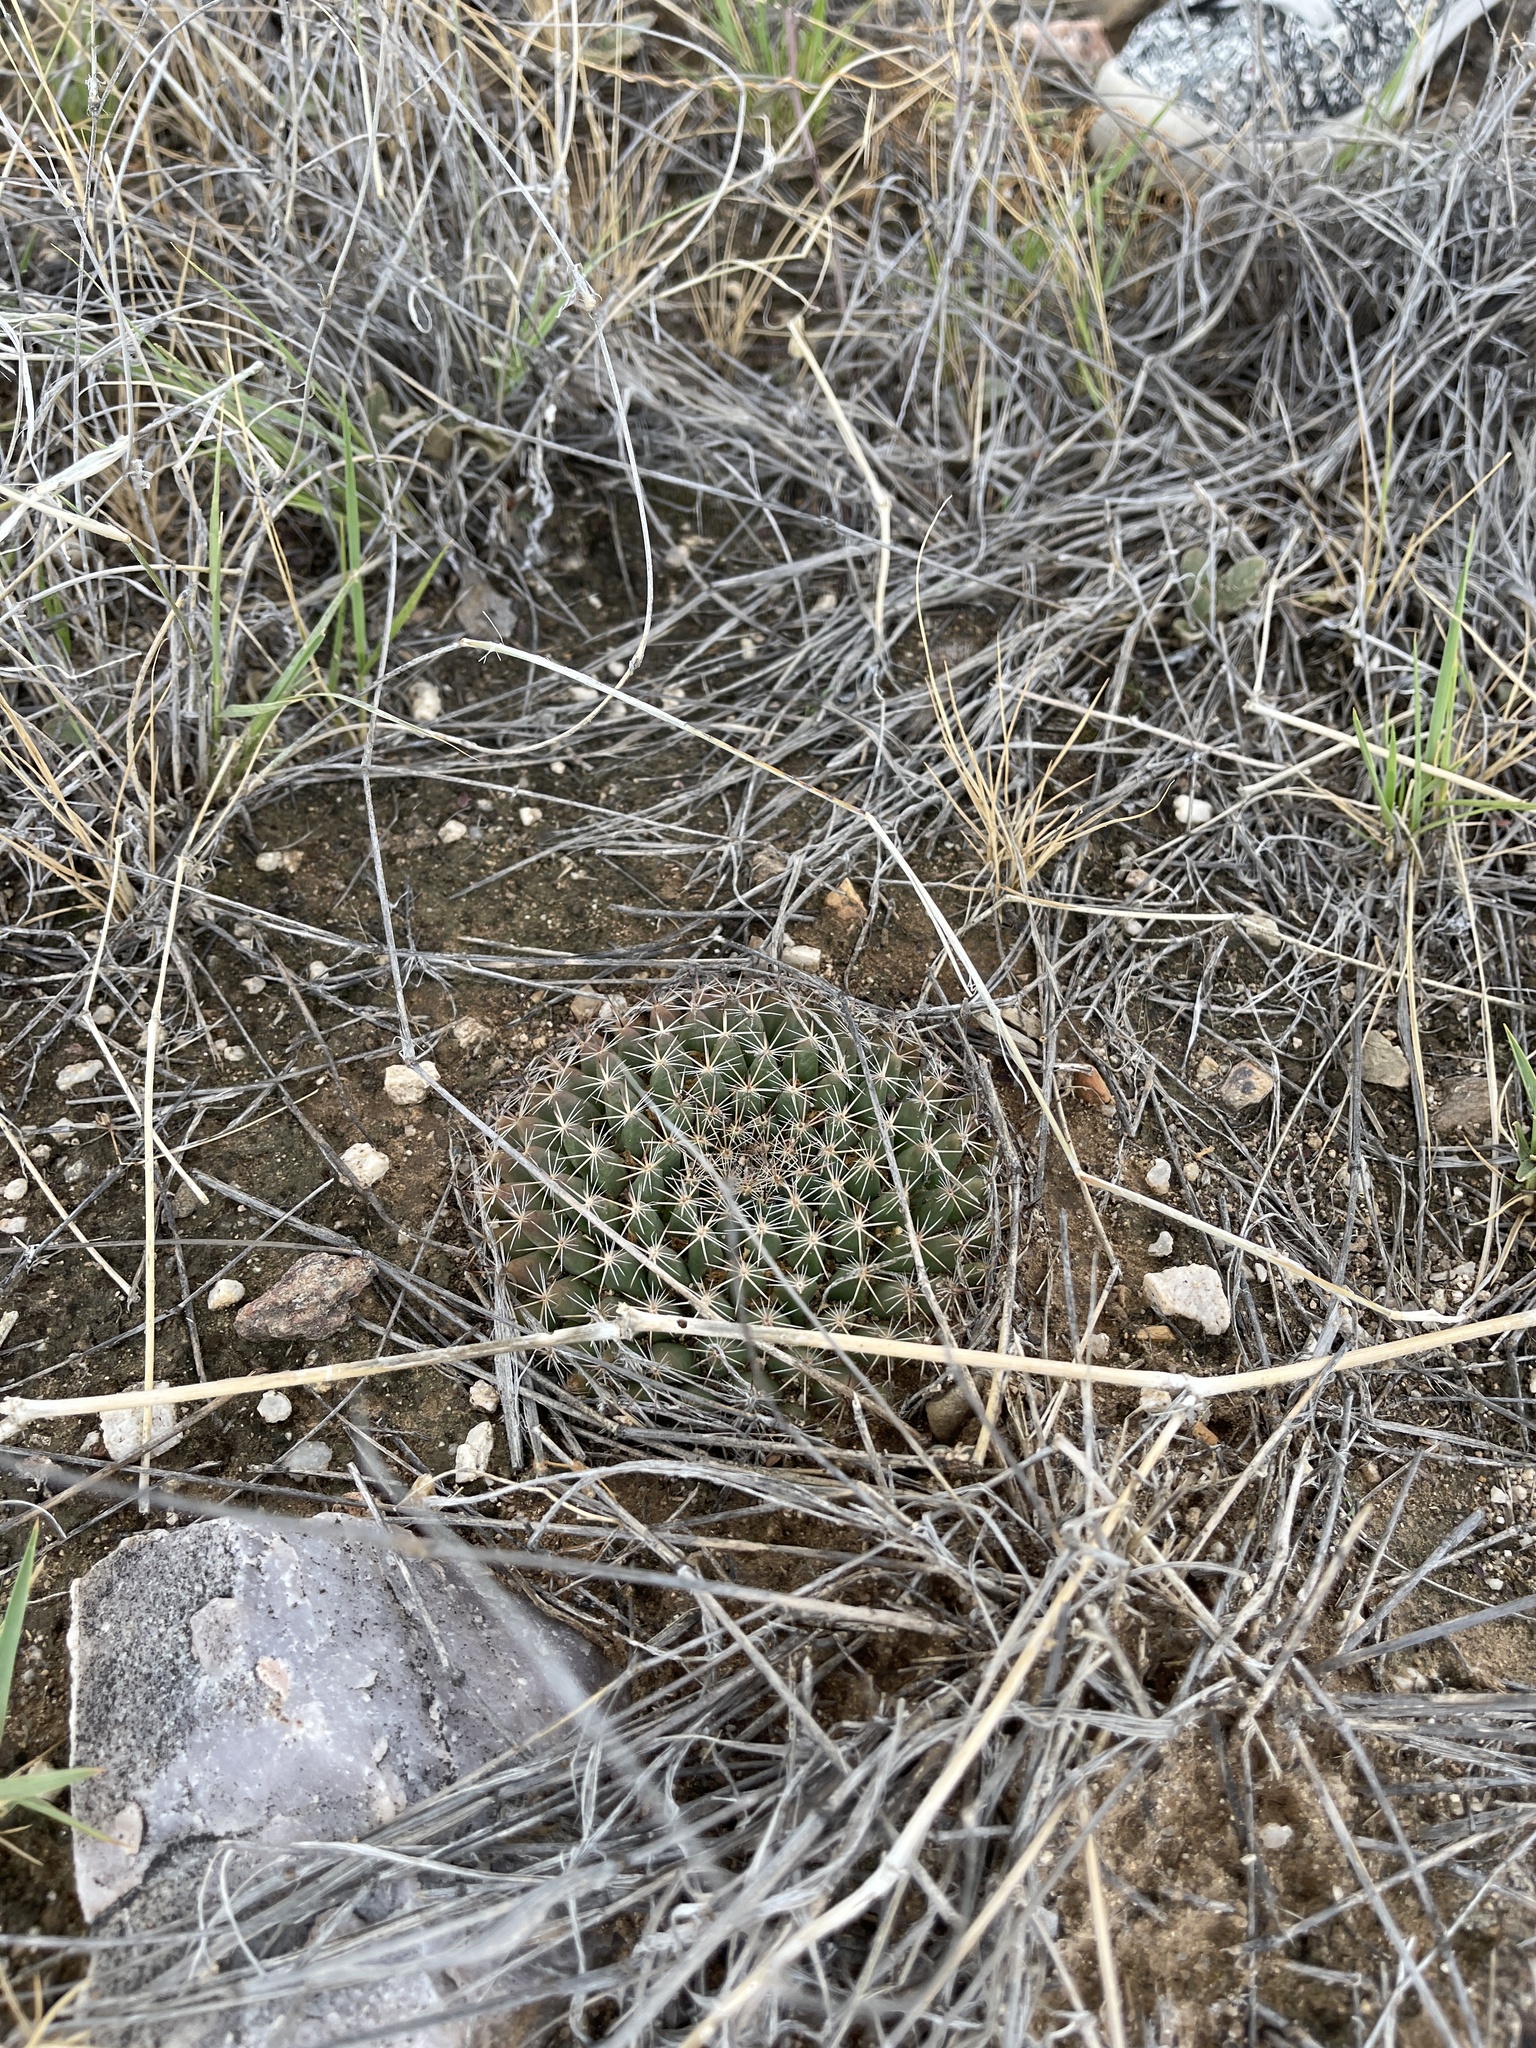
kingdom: Plantae
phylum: Tracheophyta
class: Magnoliopsida
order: Caryophyllales
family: Cactaceae
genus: Mammillaria
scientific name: Mammillaria heyderi
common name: Little nipple cactus
